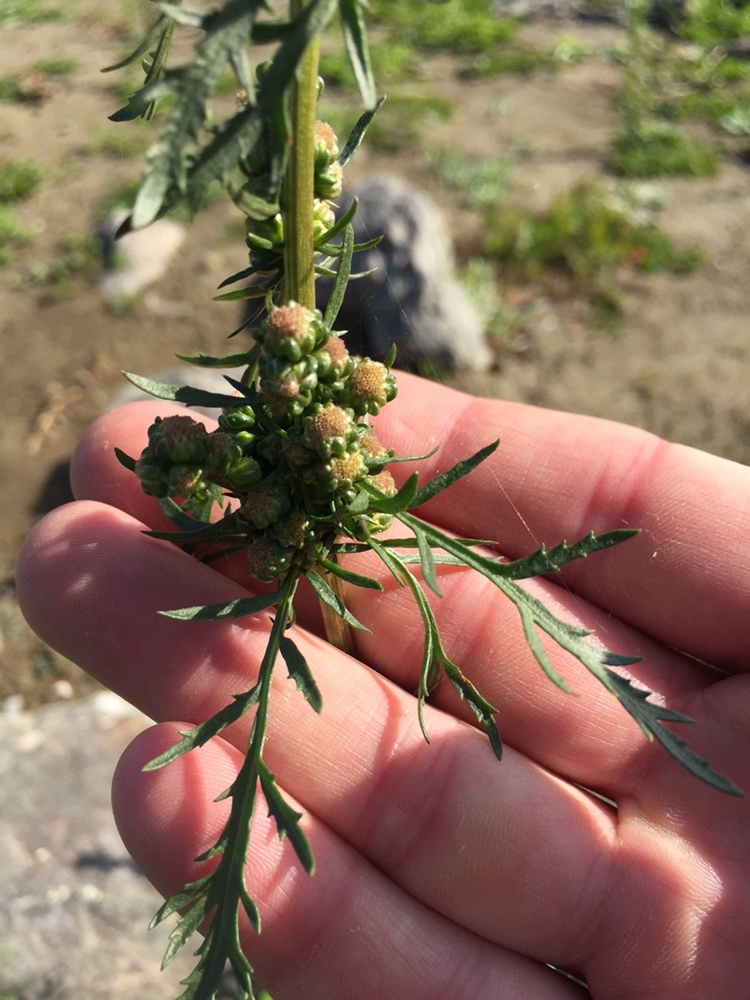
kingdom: Plantae
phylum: Tracheophyta
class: Magnoliopsida
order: Asterales
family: Asteraceae
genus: Artemisia
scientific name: Artemisia biennis
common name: Biennial wormwood
